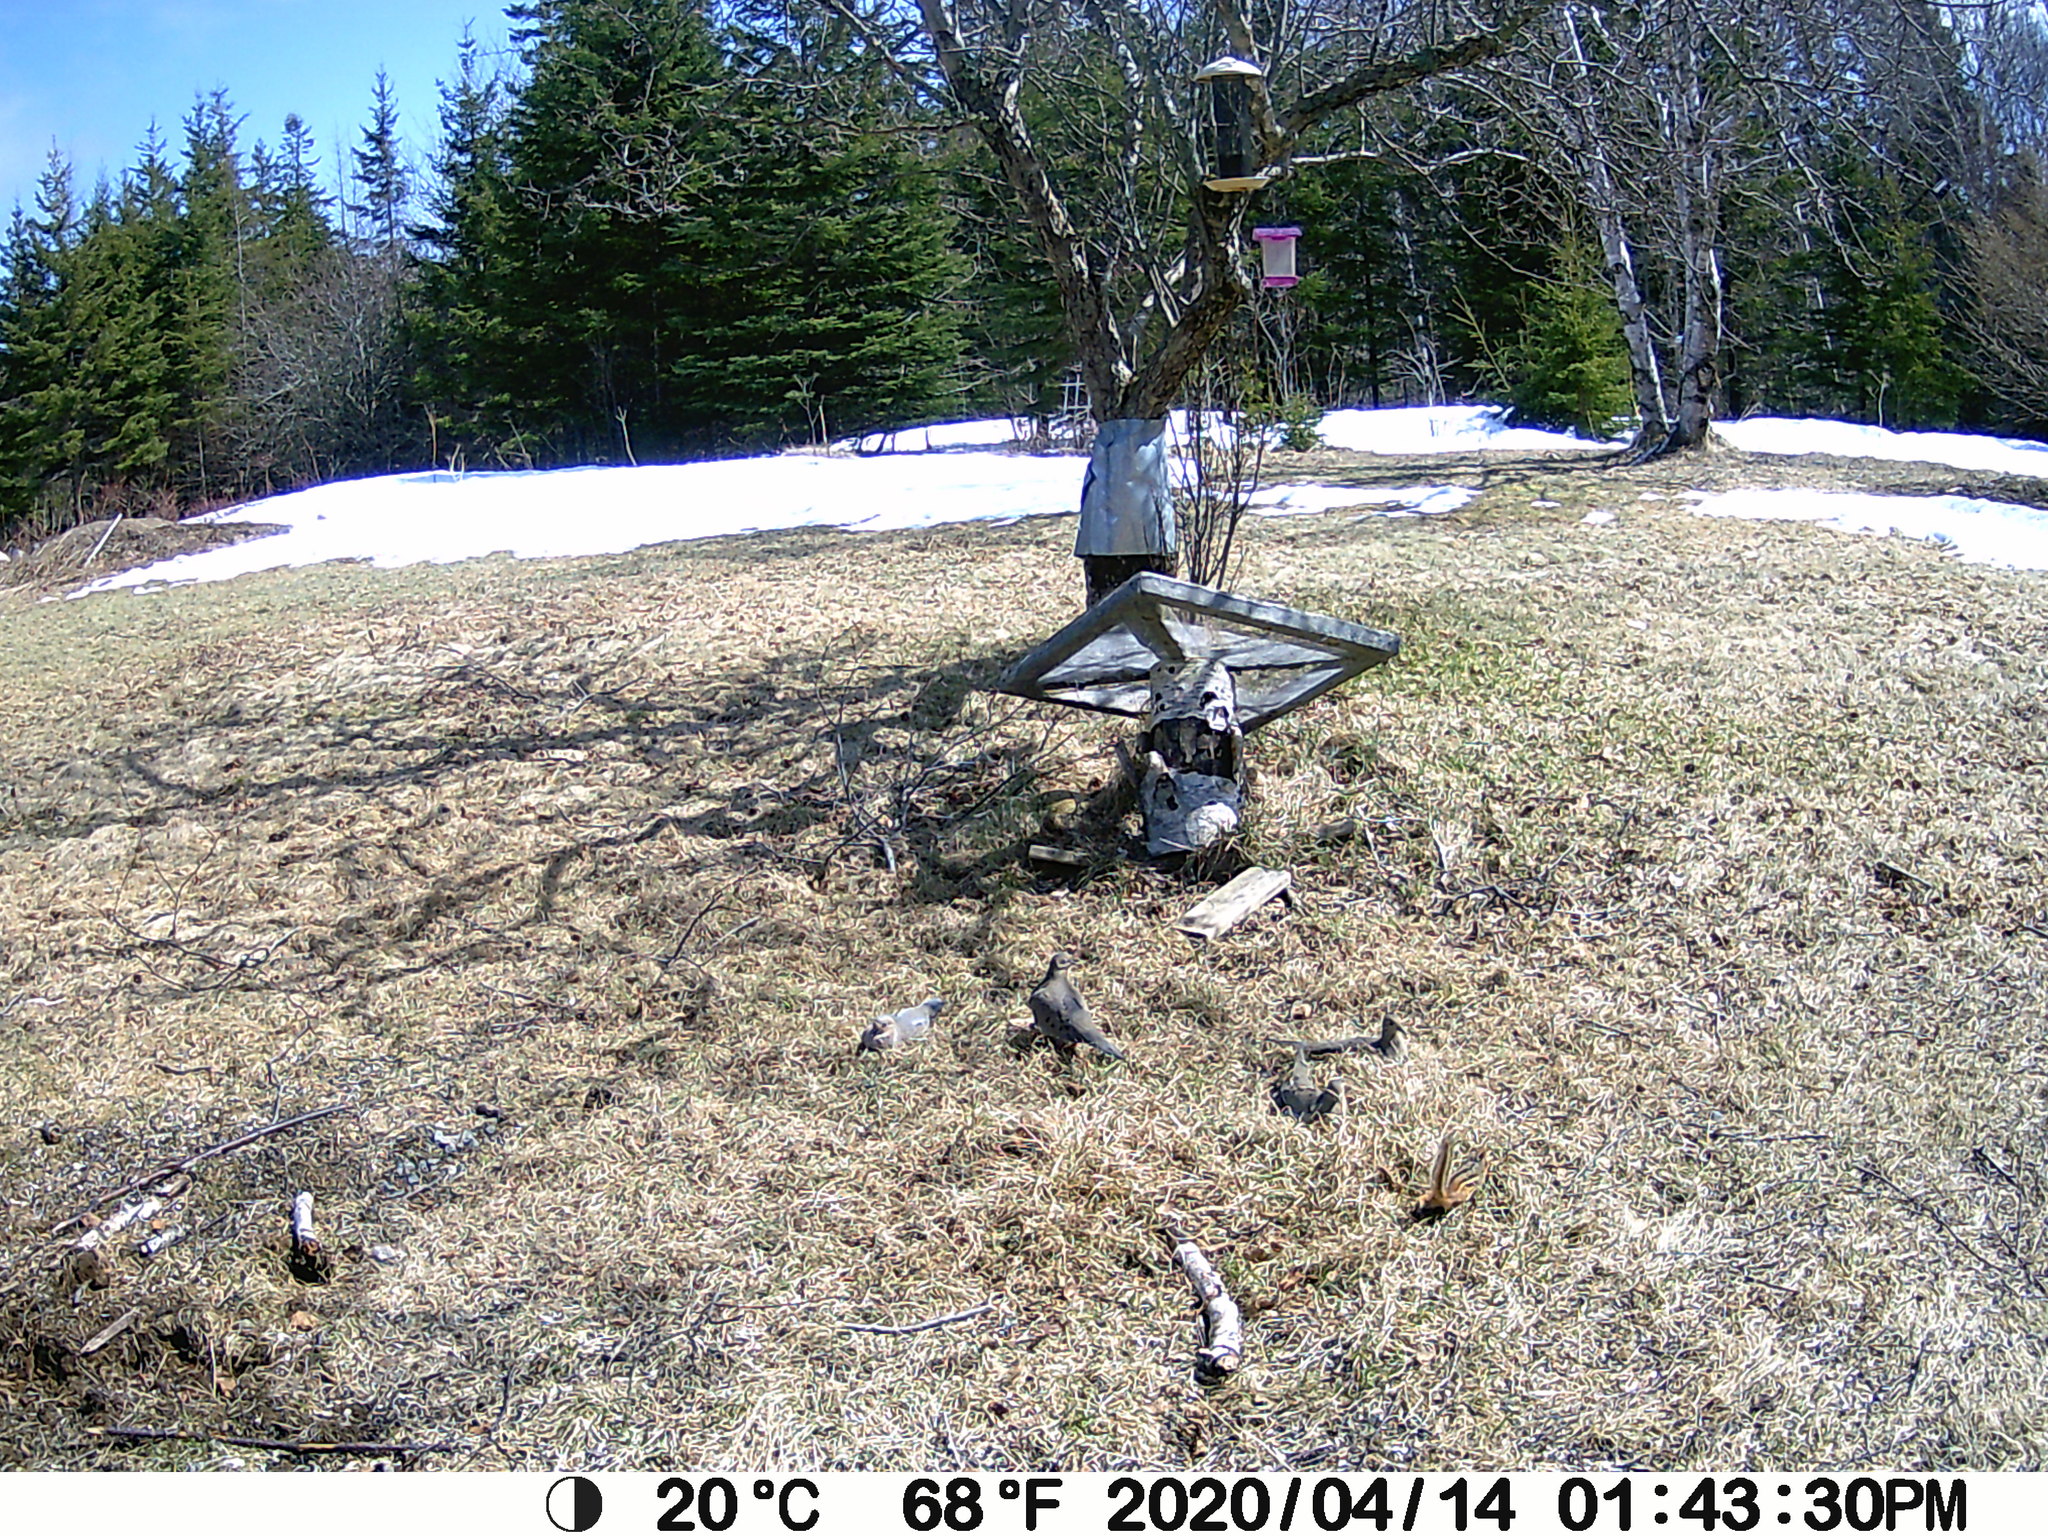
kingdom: Animalia
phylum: Chordata
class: Mammalia
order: Rodentia
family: Sciuridae
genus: Tamias
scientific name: Tamias striatus
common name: Eastern chipmunk
